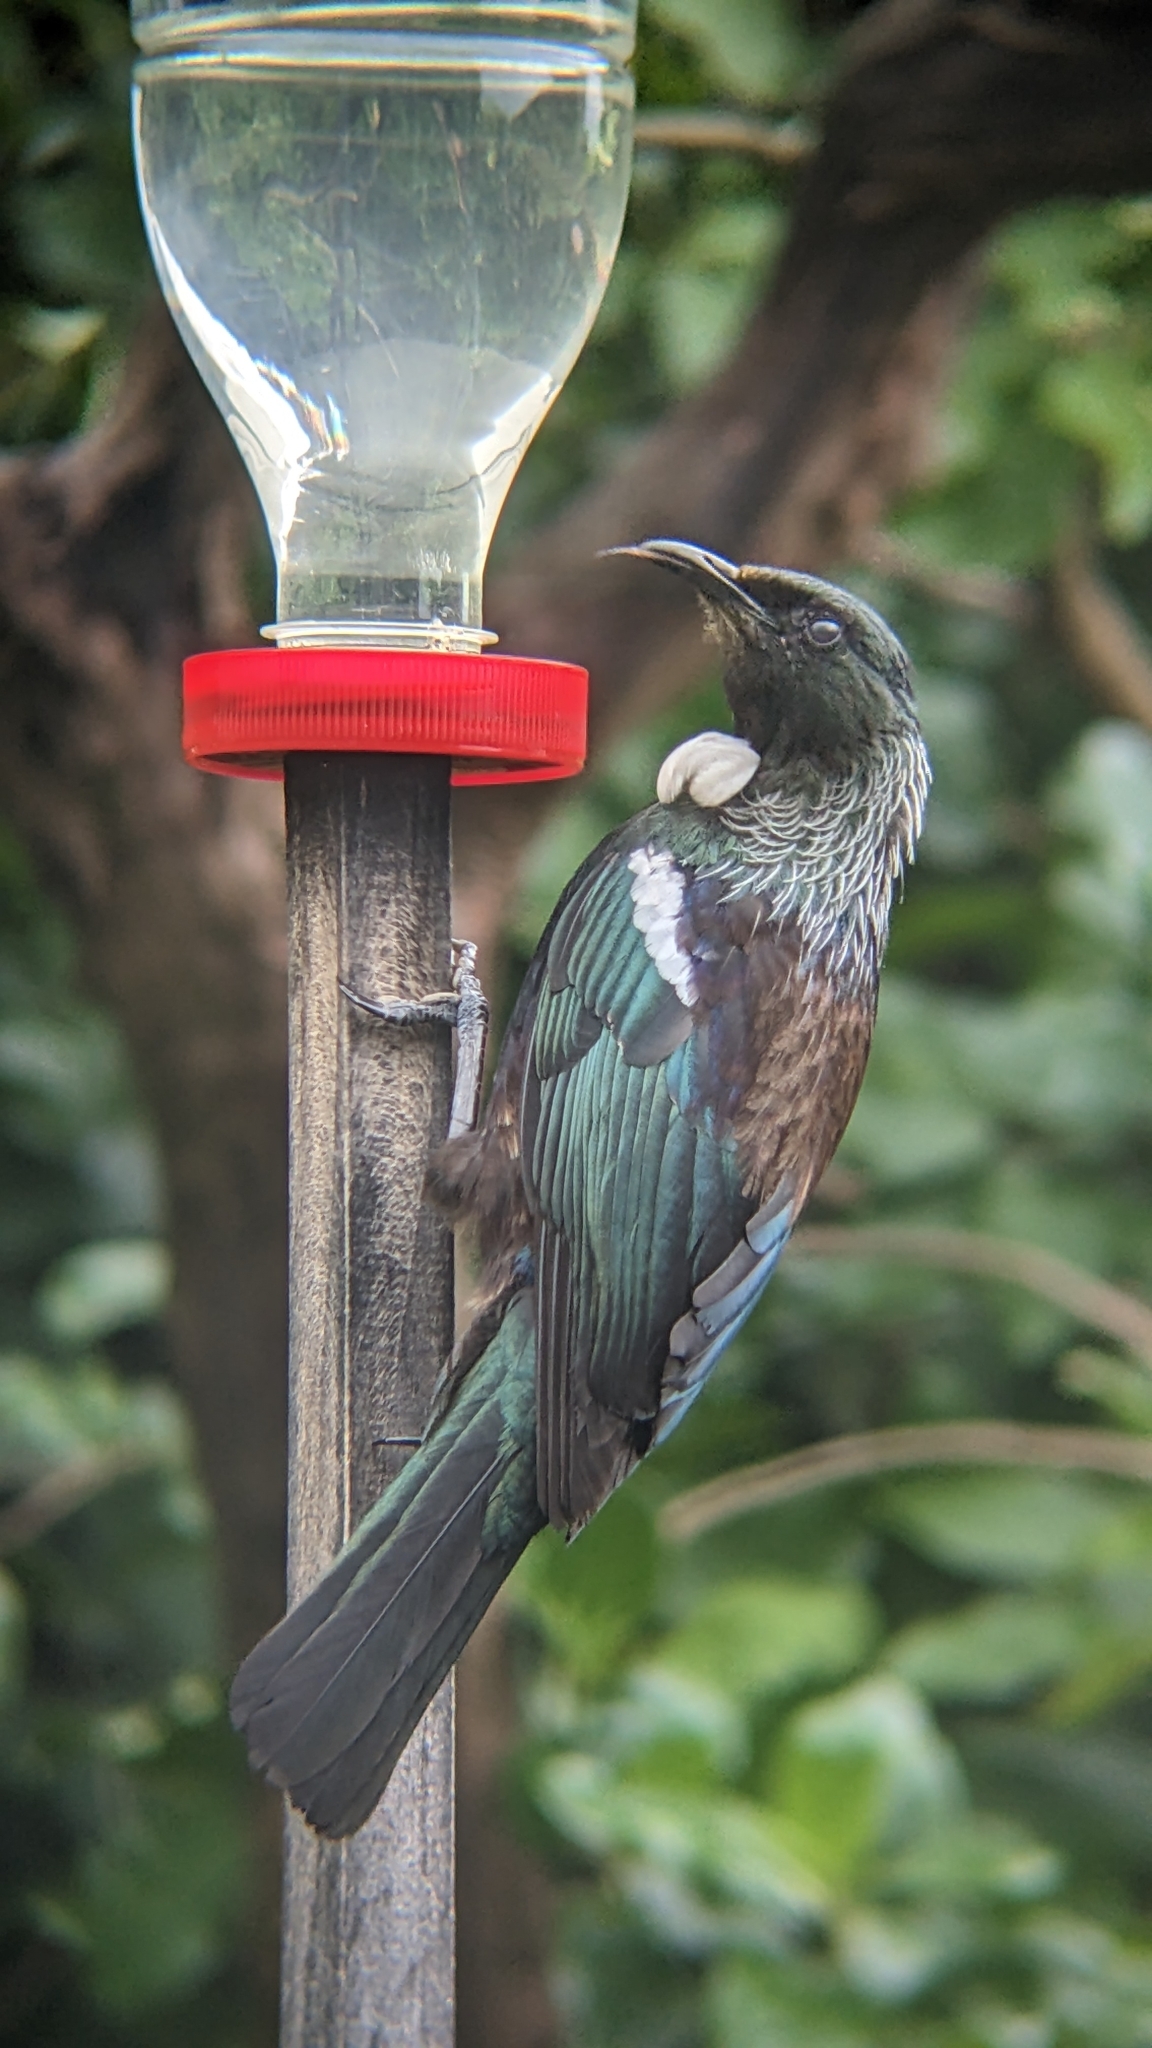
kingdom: Animalia
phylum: Chordata
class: Aves
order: Passeriformes
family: Meliphagidae
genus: Prosthemadera
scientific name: Prosthemadera novaeseelandiae
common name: Tui
